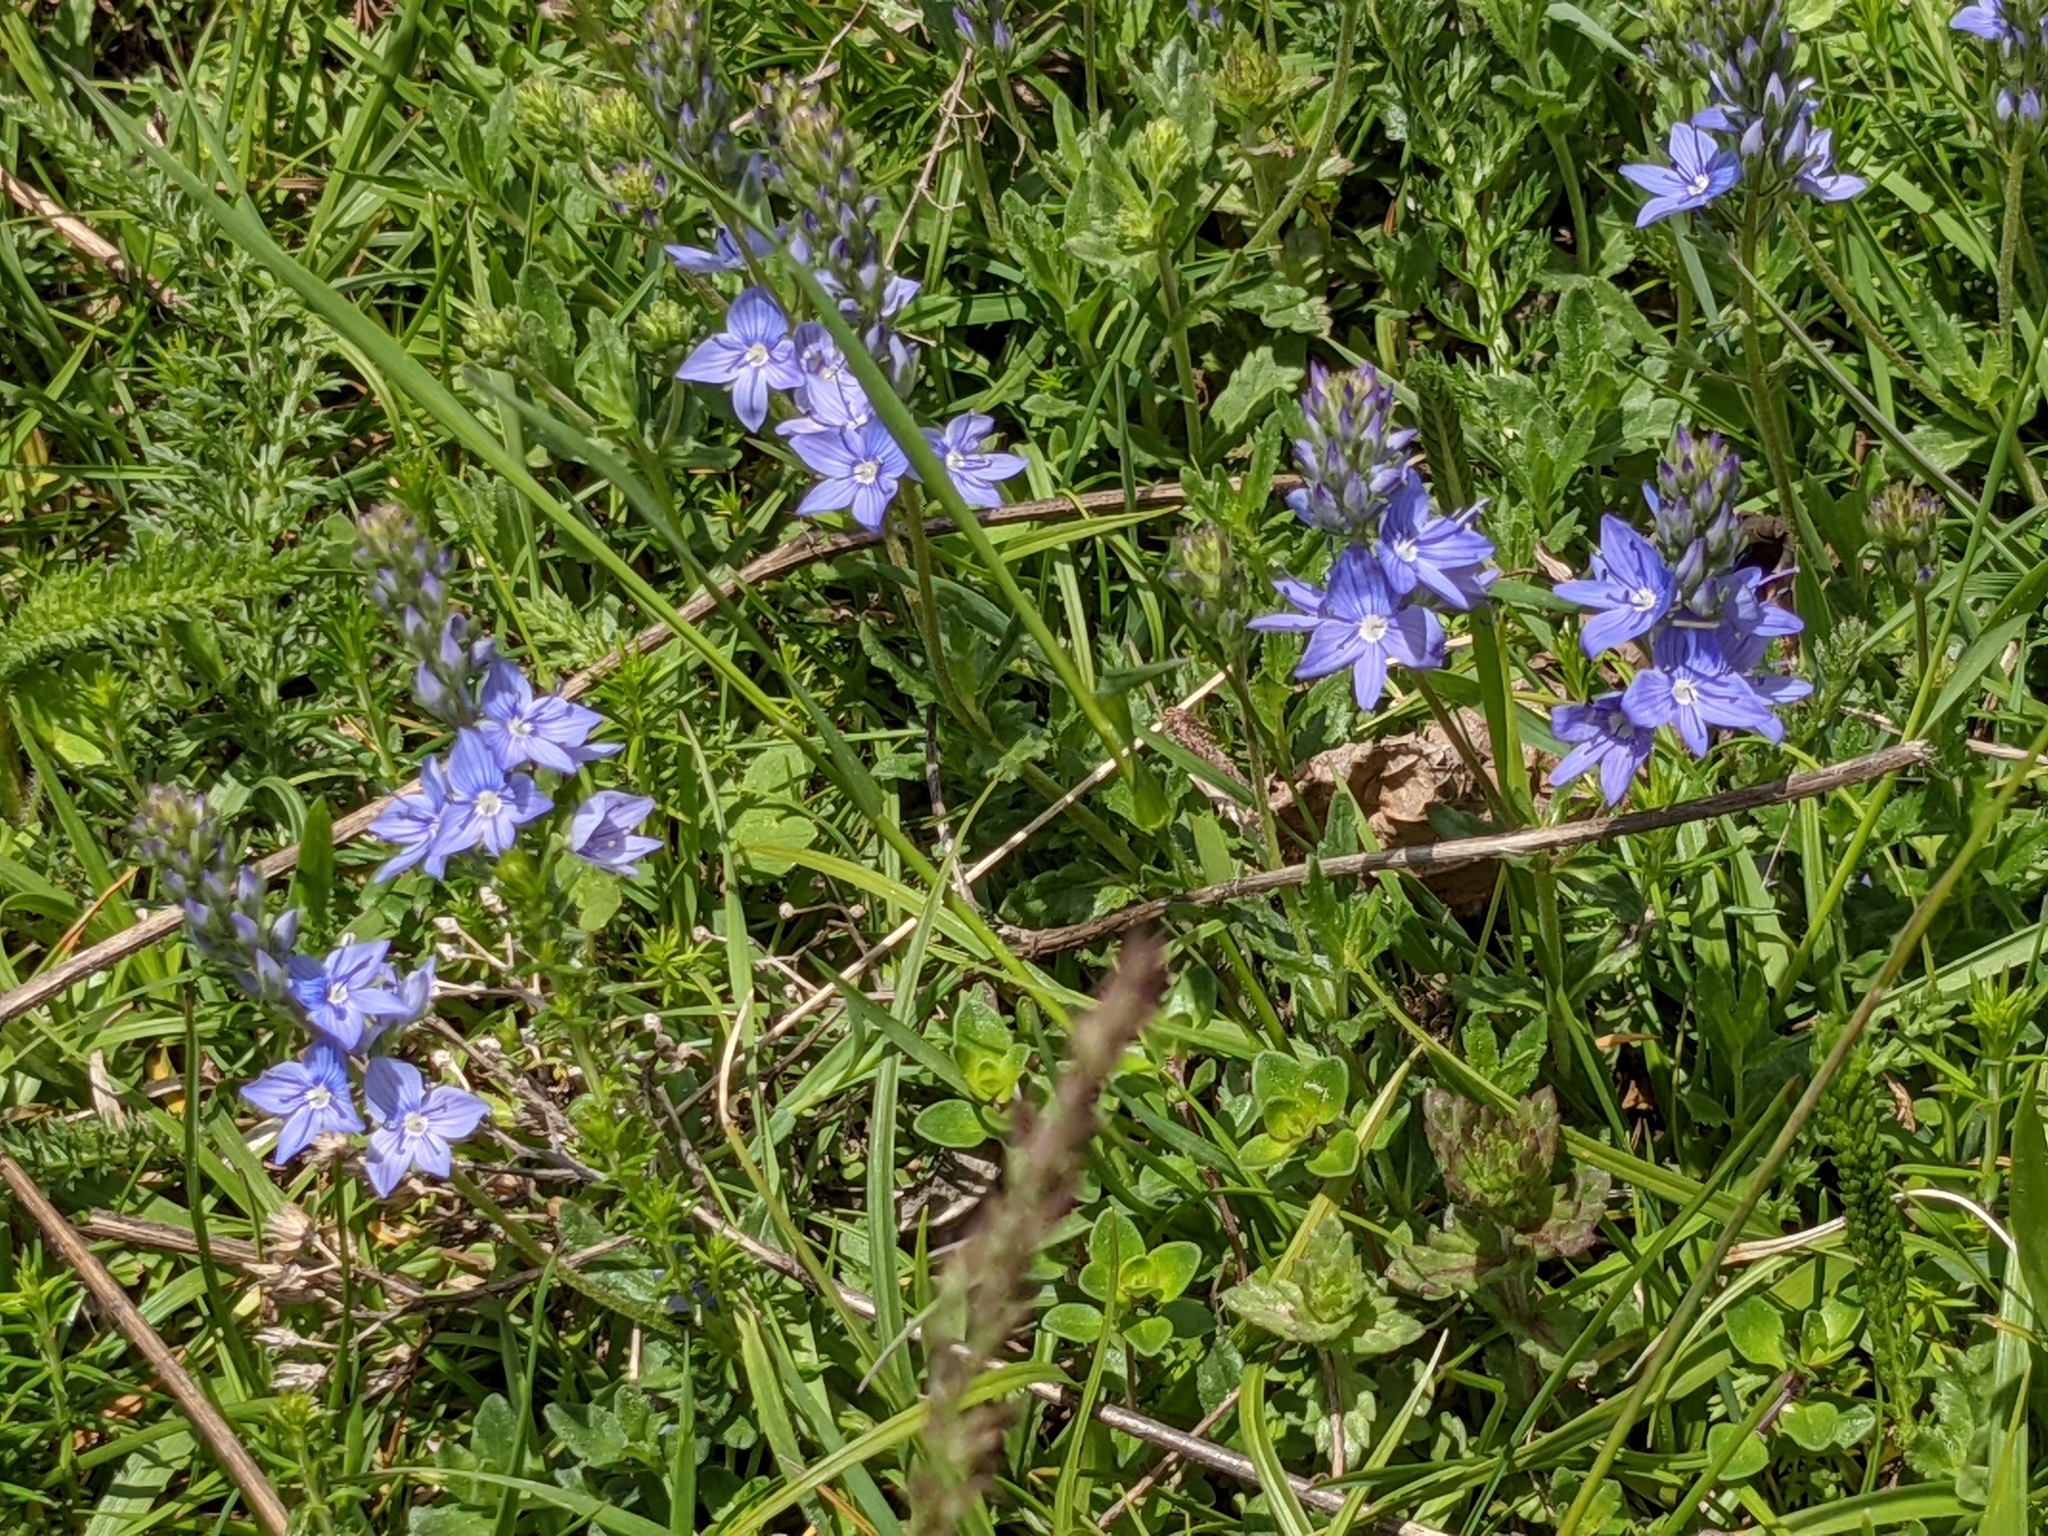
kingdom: Plantae
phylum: Tracheophyta
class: Magnoliopsida
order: Lamiales
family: Plantaginaceae
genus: Veronica
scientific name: Veronica orsiniana
